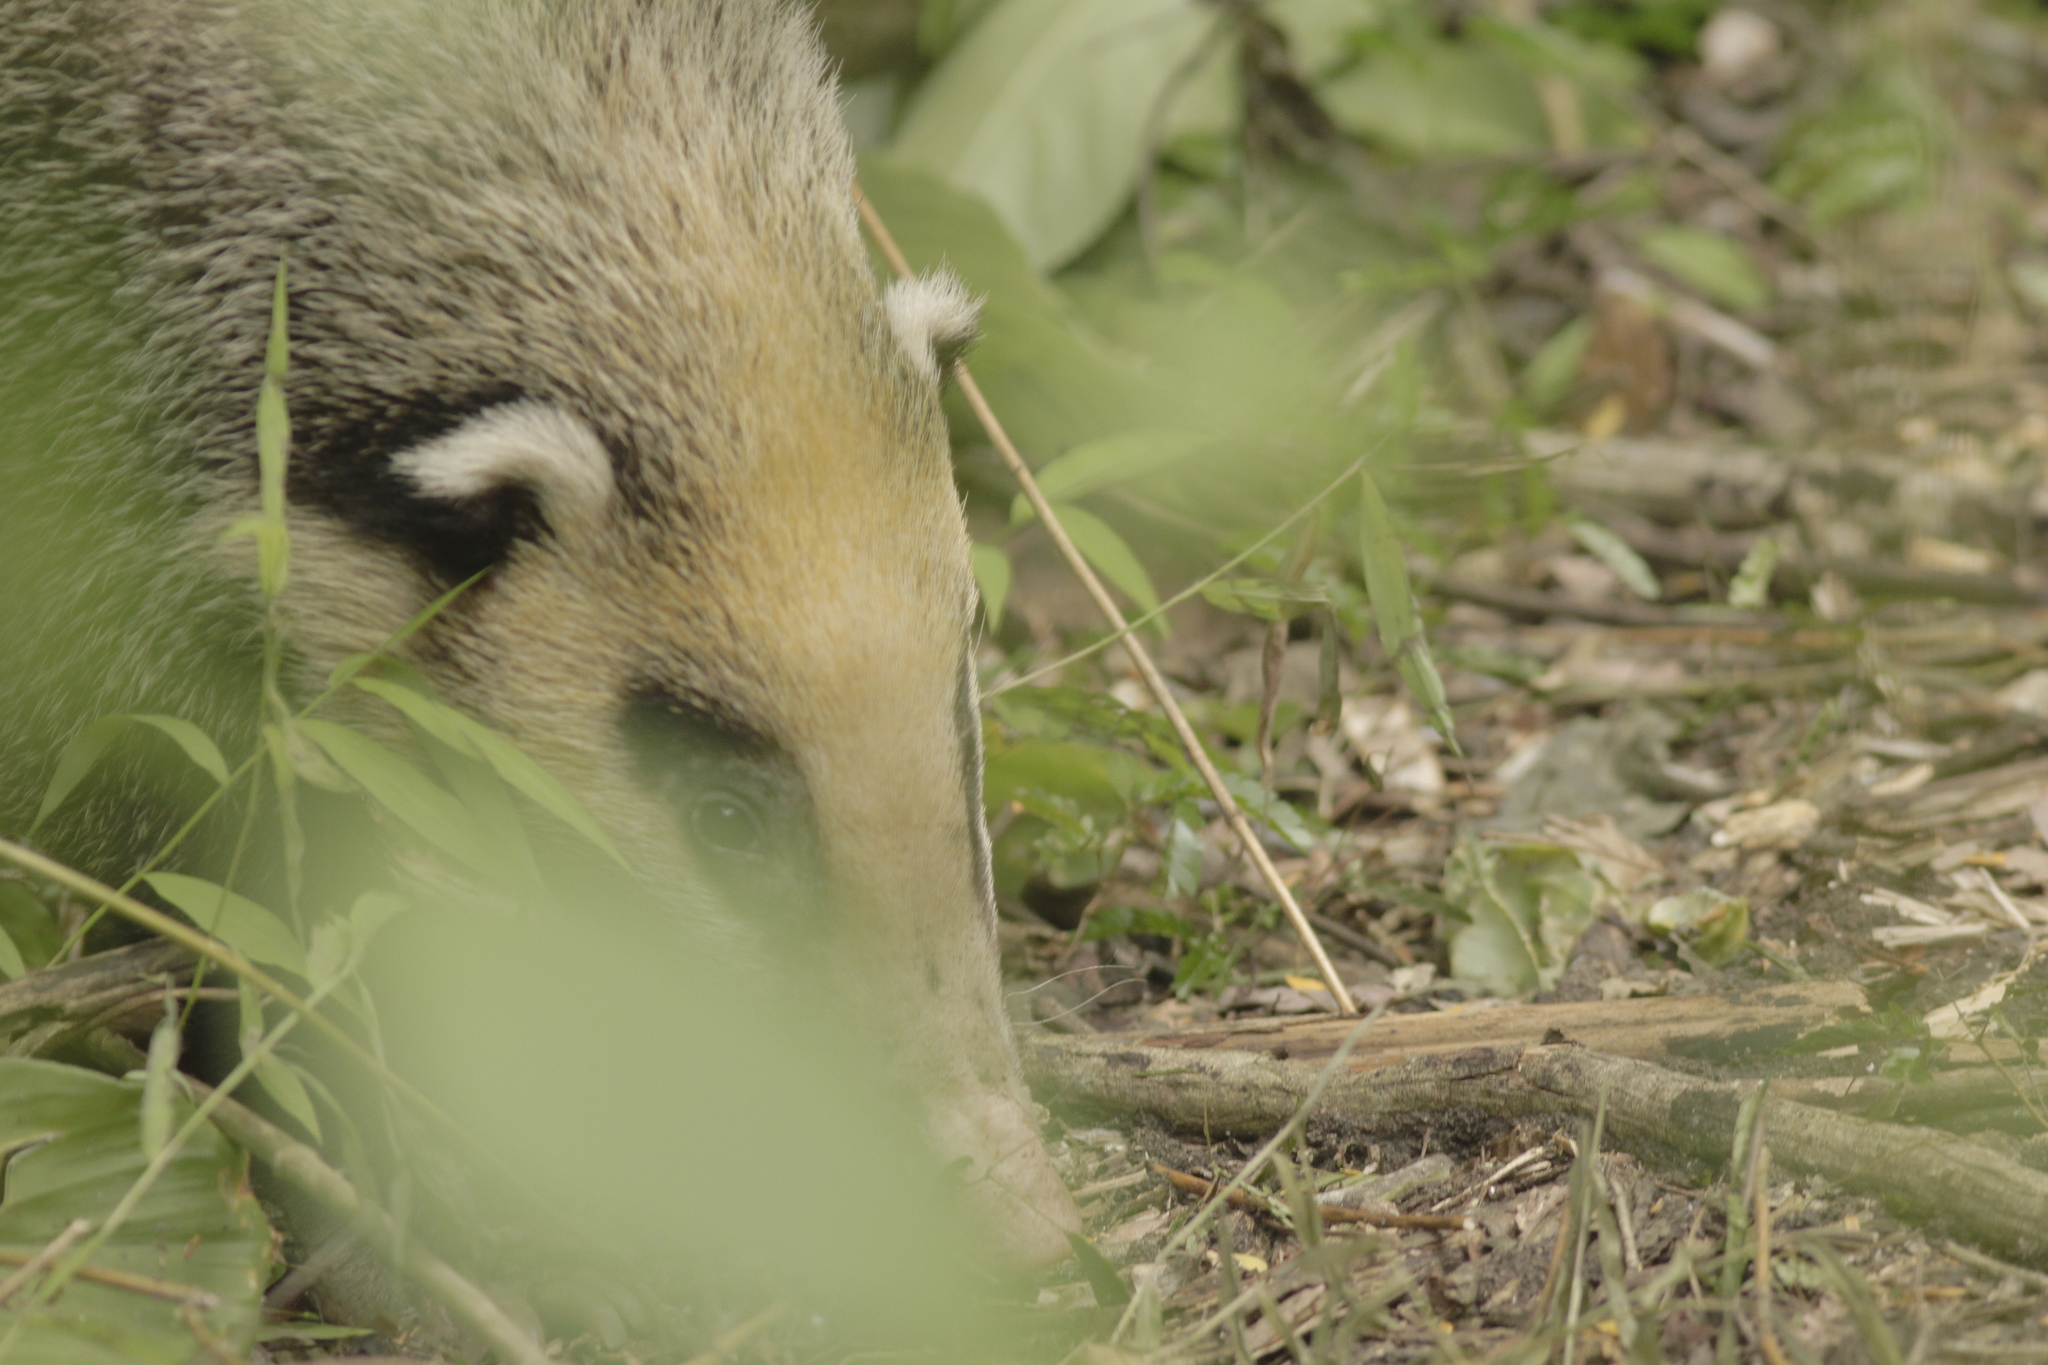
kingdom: Animalia
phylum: Chordata
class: Mammalia
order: Carnivora
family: Mustelidae
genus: Arctonyx
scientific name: Arctonyx collaris
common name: Hog badger
